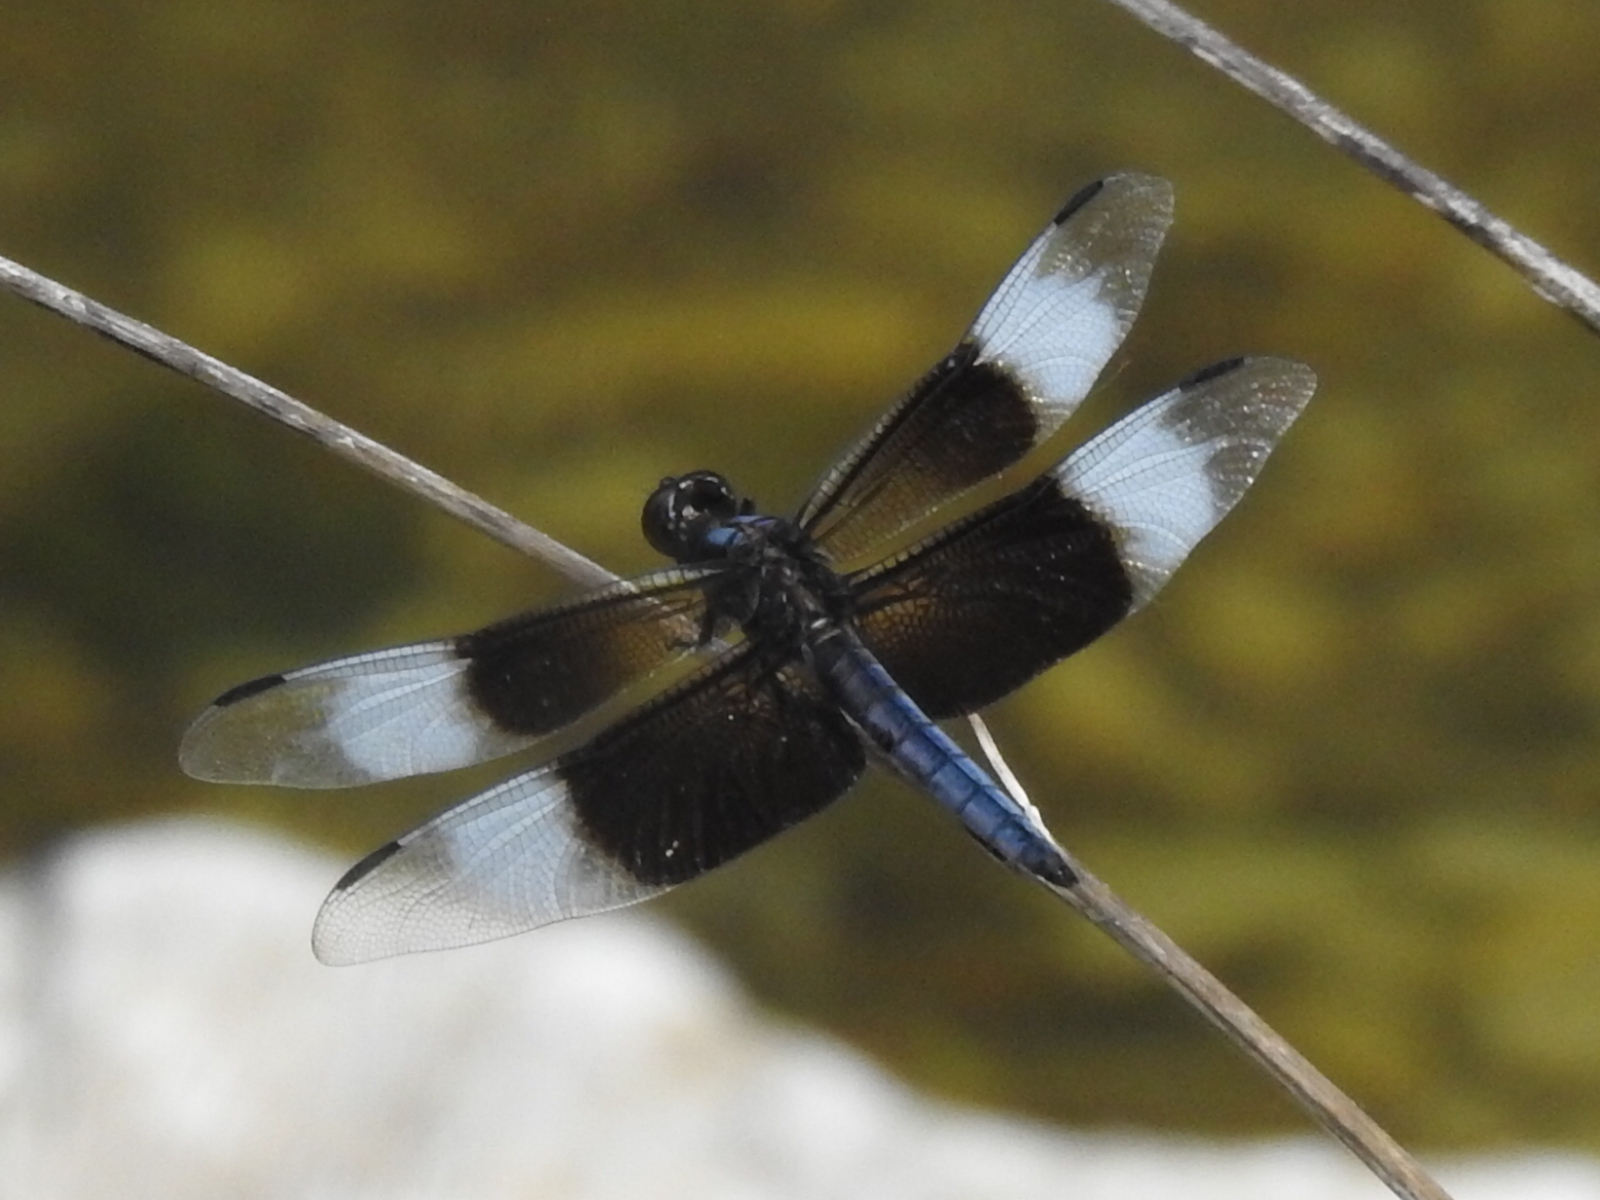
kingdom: Animalia
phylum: Arthropoda
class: Insecta
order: Odonata
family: Libellulidae
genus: Libellula
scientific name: Libellula luctuosa
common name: Widow skimmer
